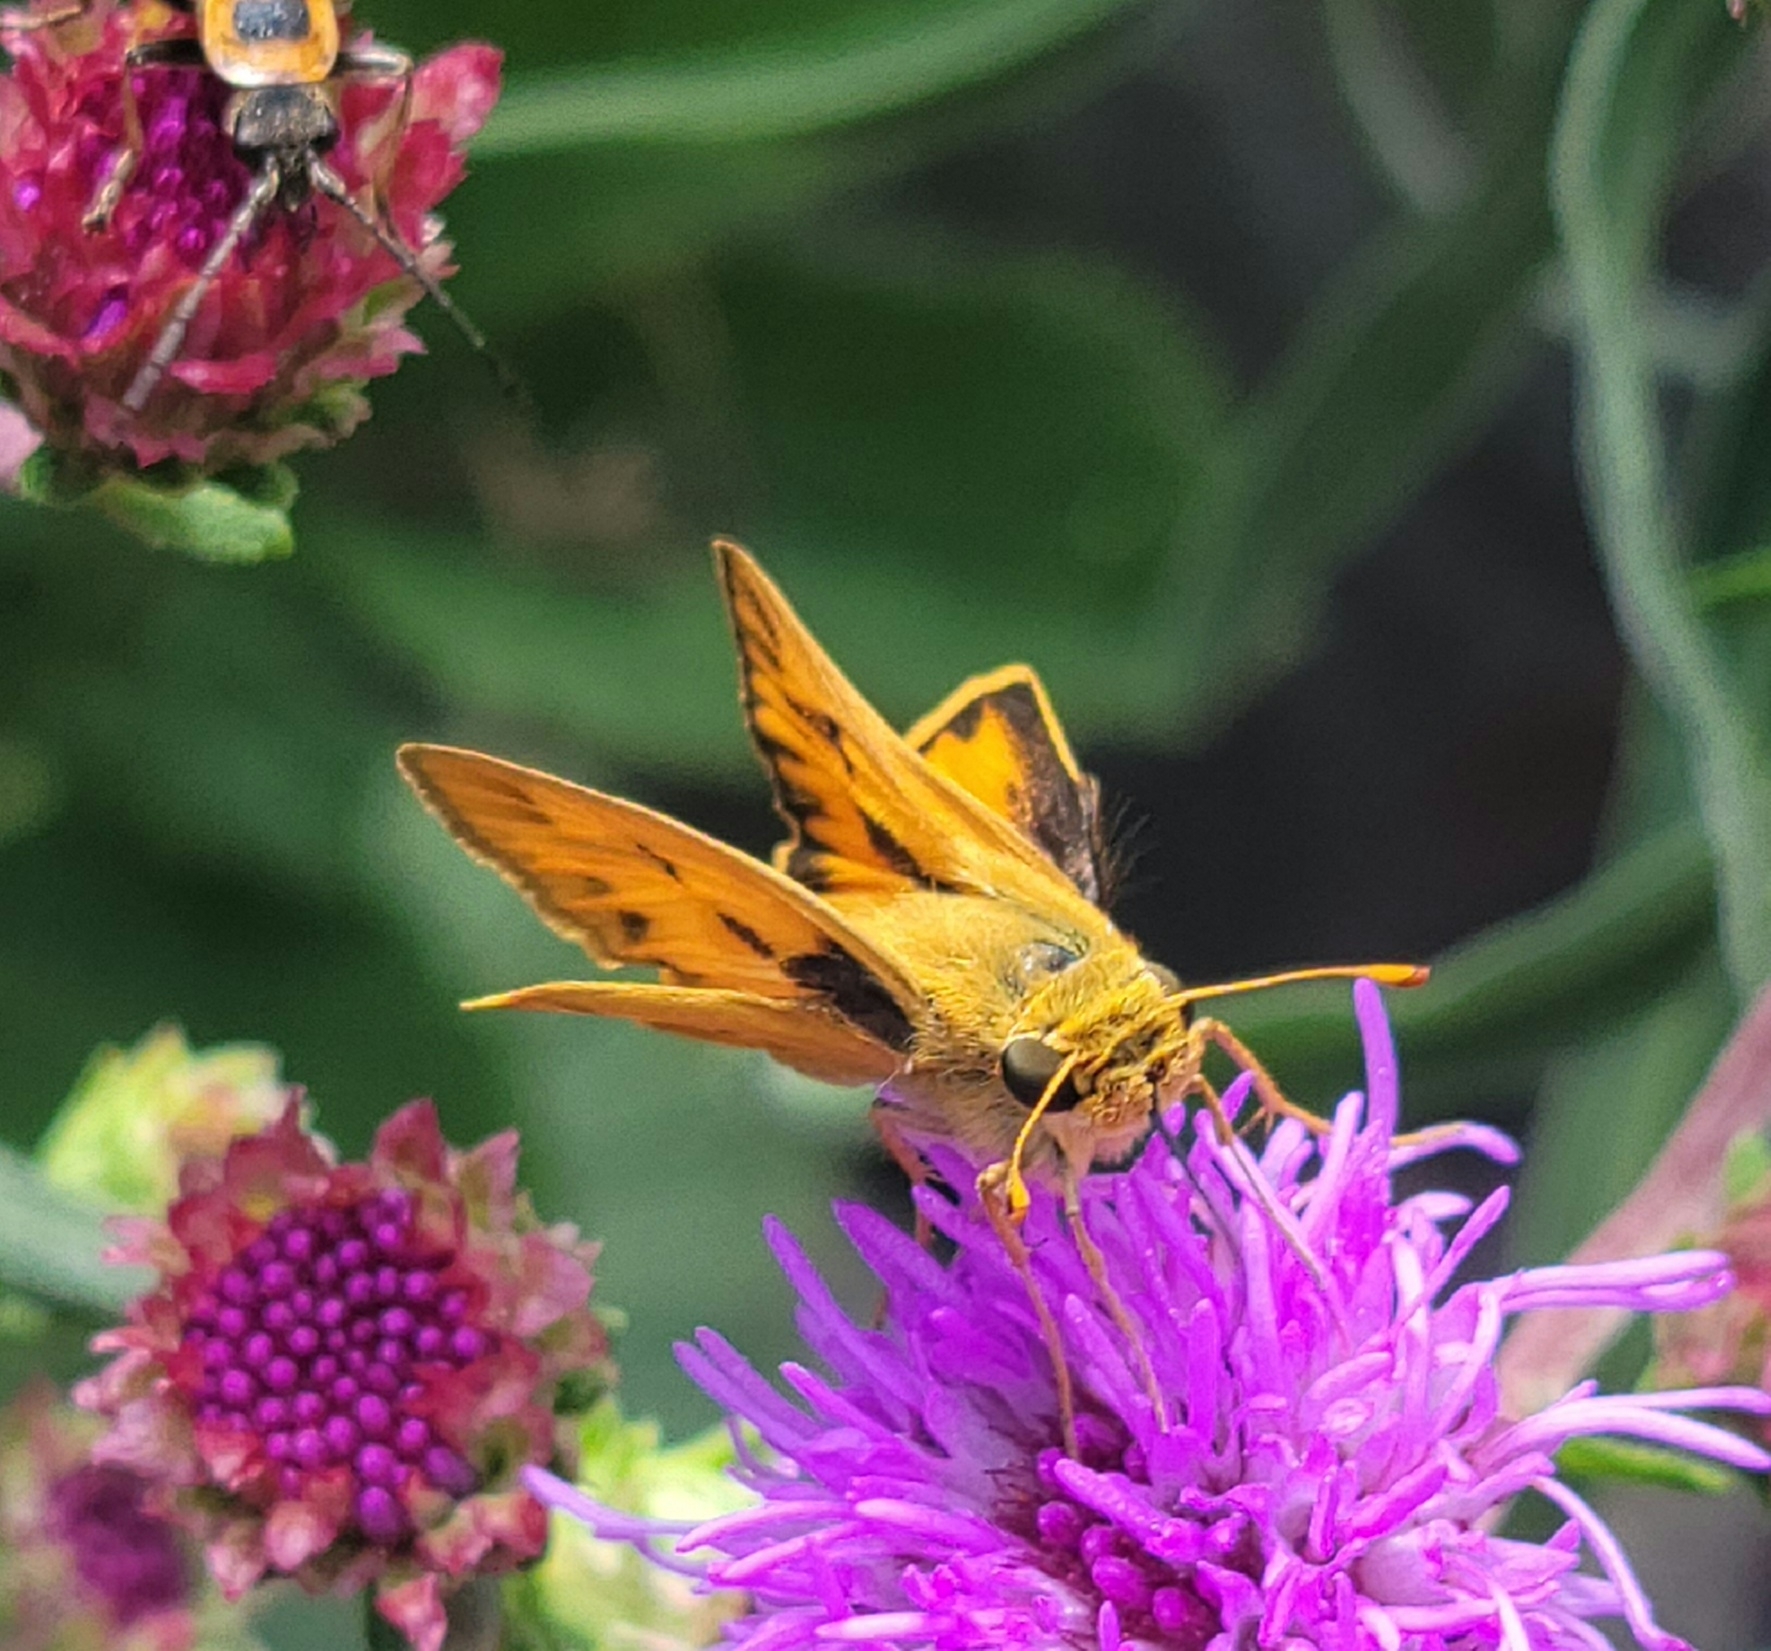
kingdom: Animalia
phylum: Arthropoda
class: Insecta
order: Lepidoptera
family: Hesperiidae
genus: Hylephila
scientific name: Hylephila phyleus
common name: Fiery skipper
